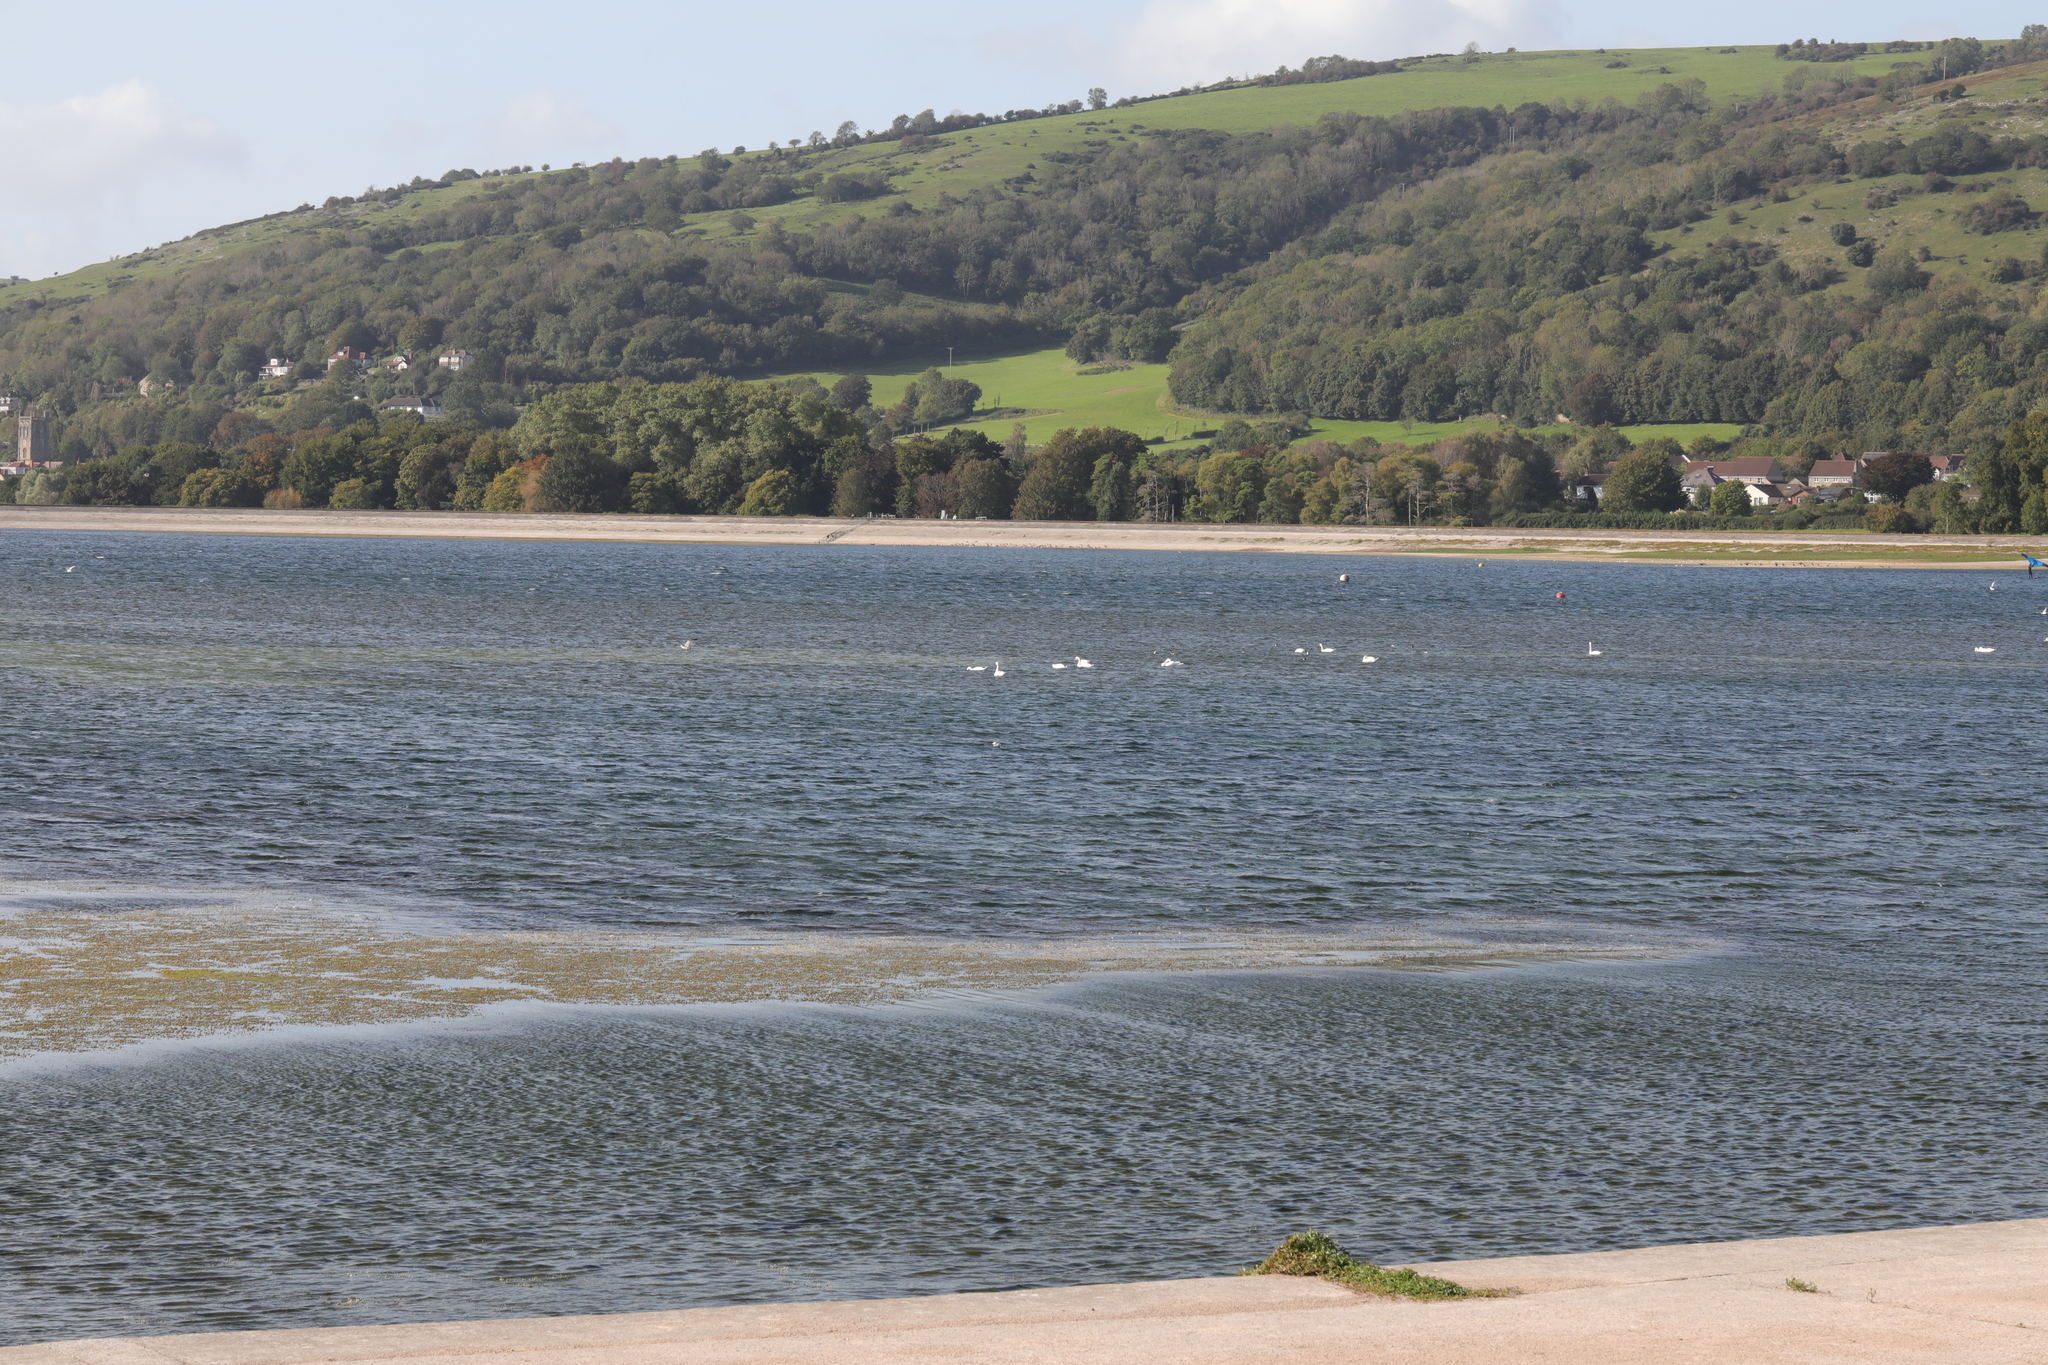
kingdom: Animalia
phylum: Chordata
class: Aves
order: Anseriformes
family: Anatidae
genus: Cygnus
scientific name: Cygnus olor
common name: Mute swan
